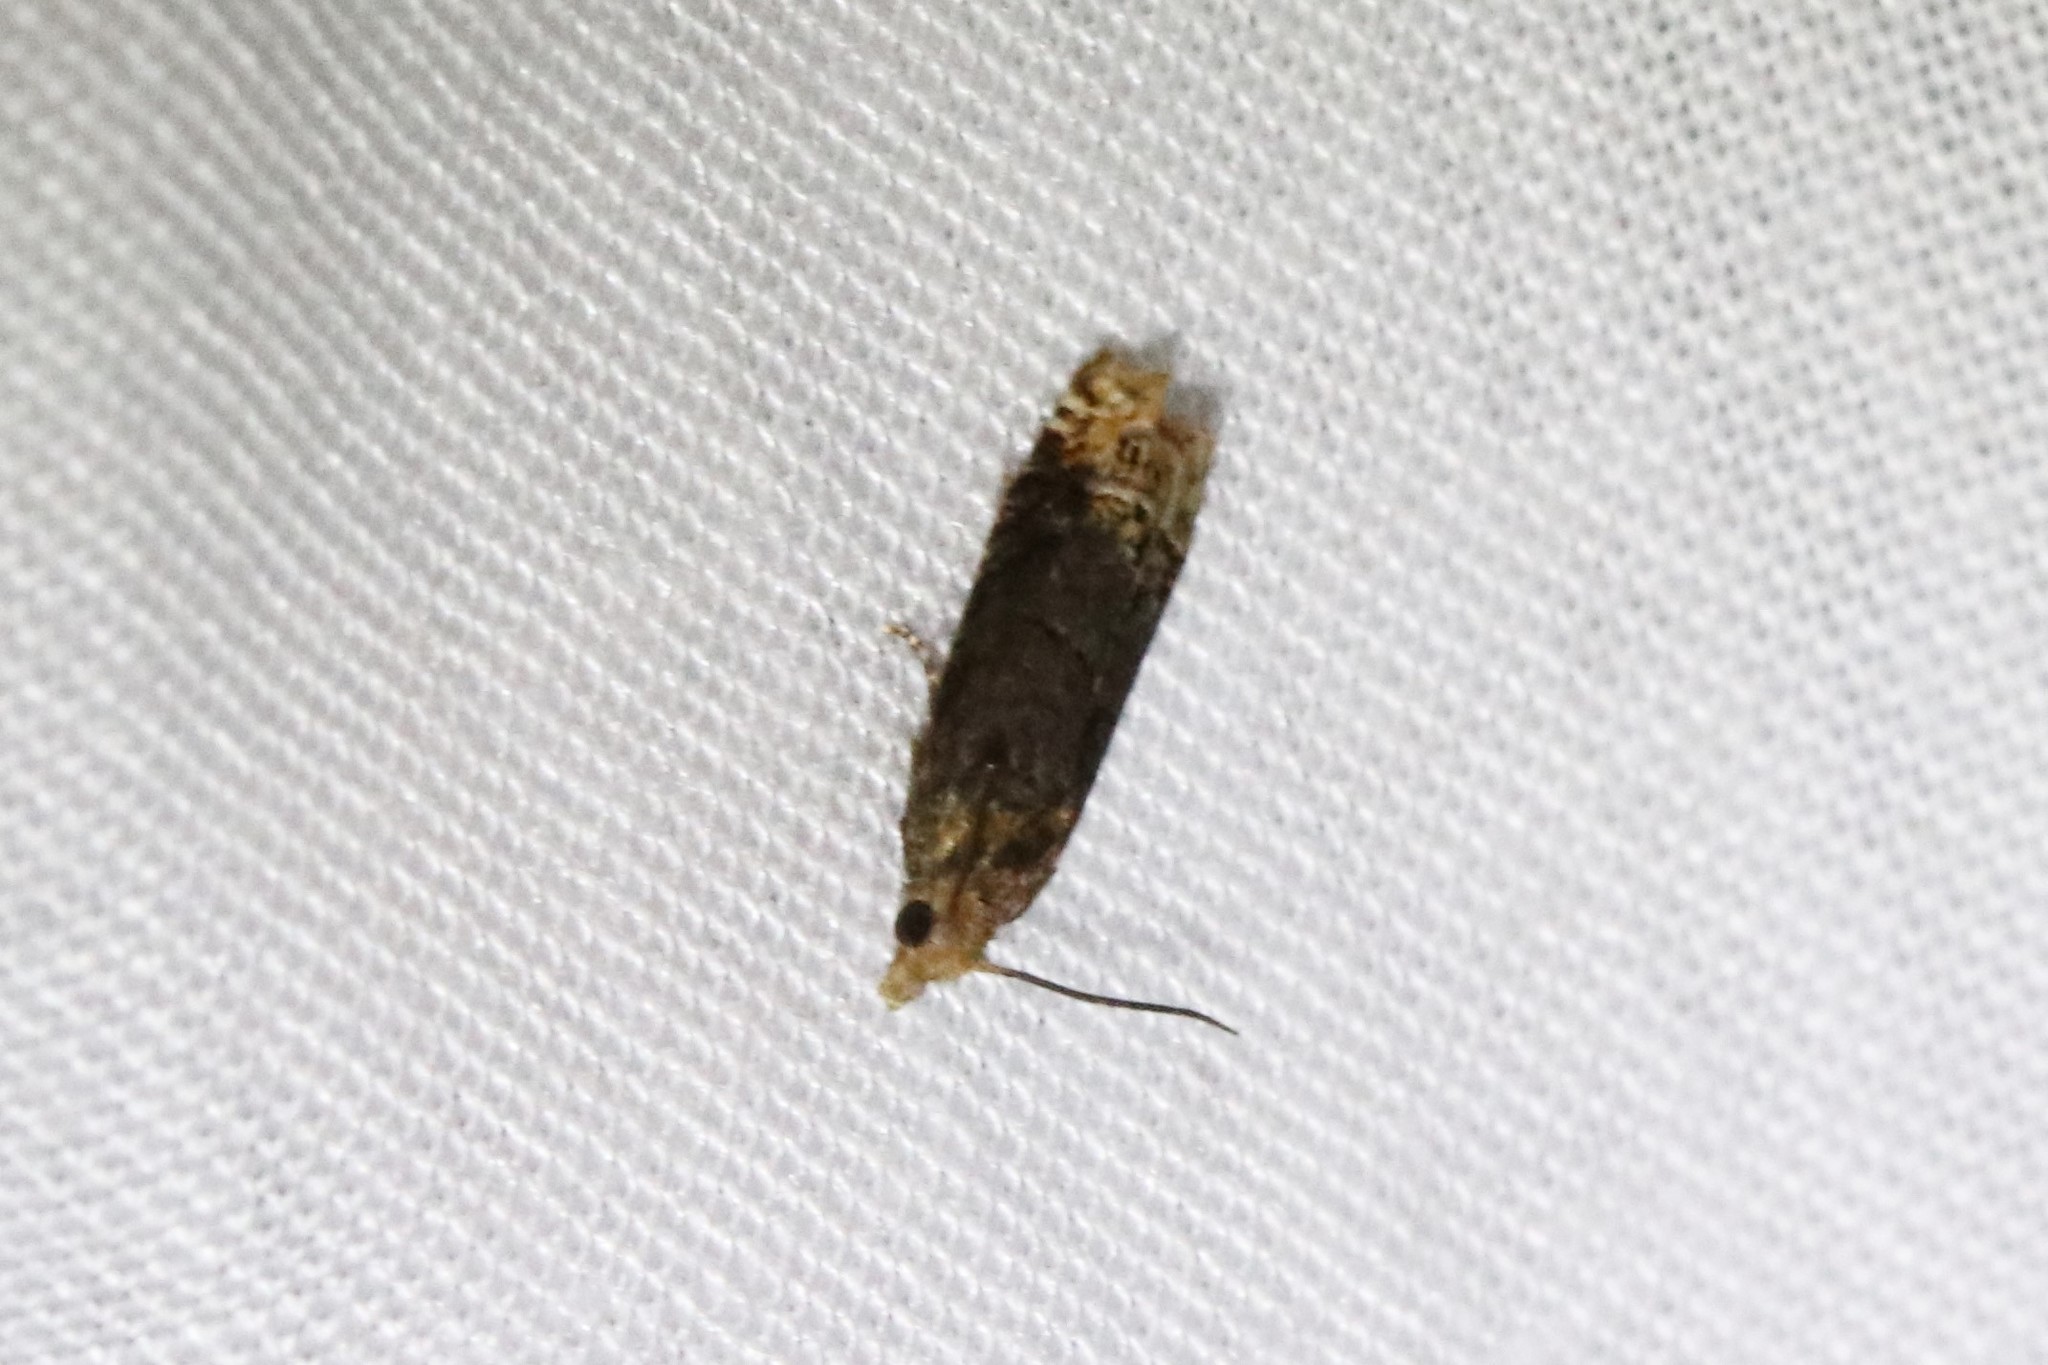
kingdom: Animalia
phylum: Arthropoda
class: Insecta
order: Lepidoptera
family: Tortricidae
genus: Eucosma
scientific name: Eucosma ochroterminana
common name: Buff-tipped eucosma moth
